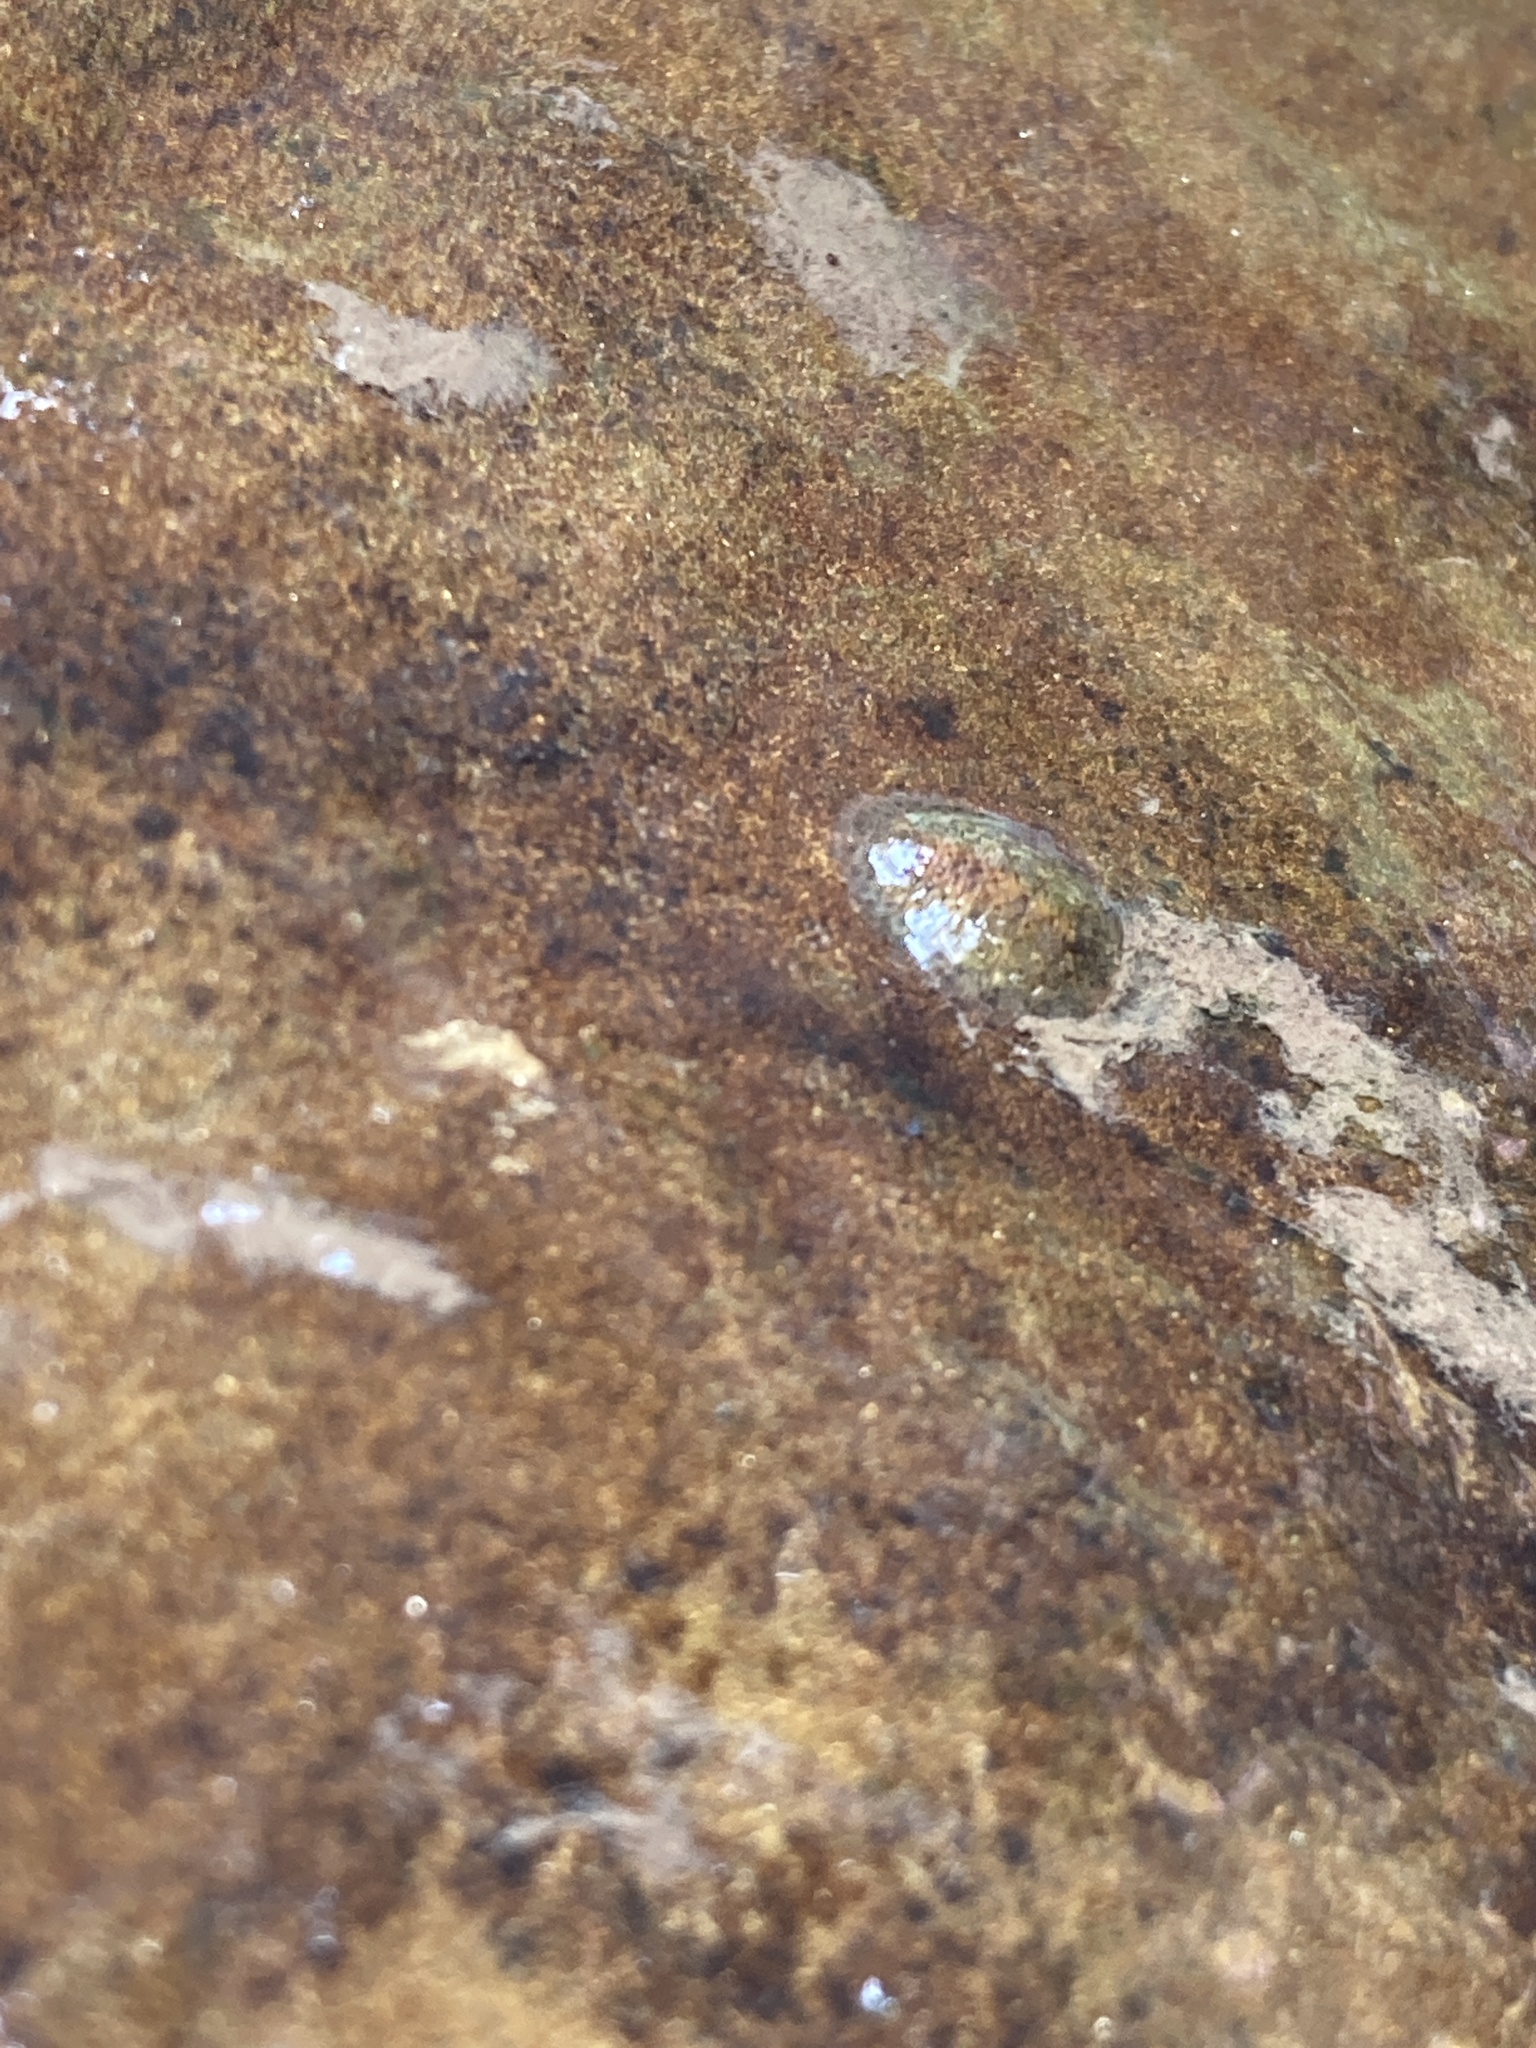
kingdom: Animalia
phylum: Arthropoda
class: Insecta
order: Coleoptera
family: Psephenidae
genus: Psephenus
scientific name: Psephenus herricki
